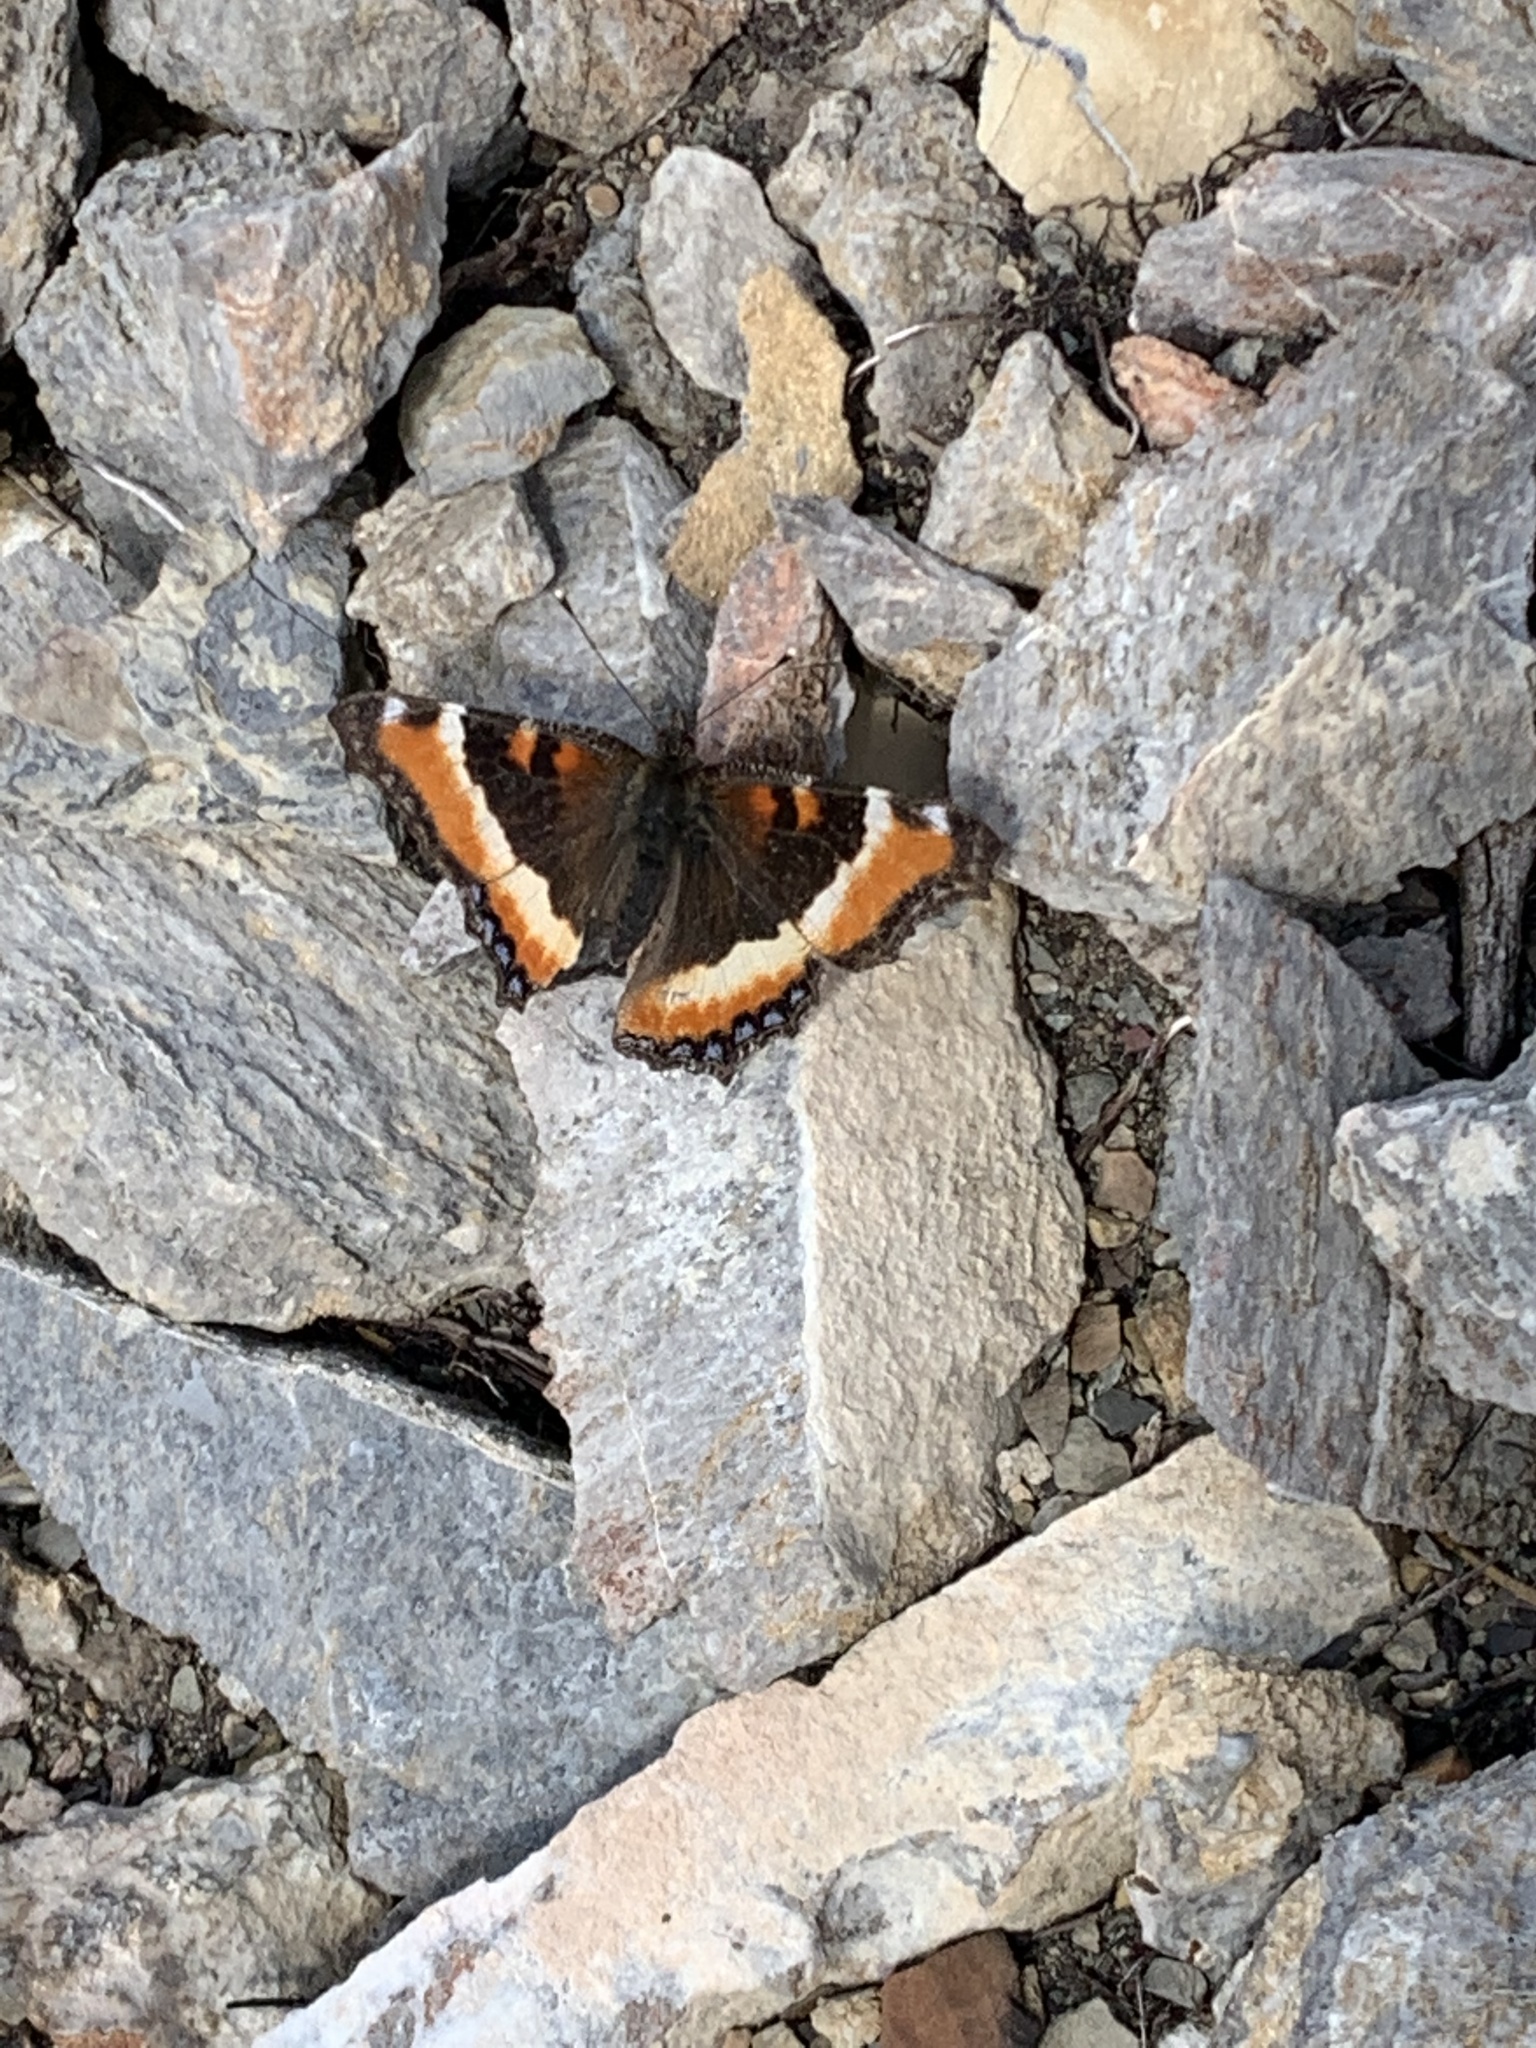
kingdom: Animalia
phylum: Arthropoda
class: Insecta
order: Lepidoptera
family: Nymphalidae
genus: Aglais
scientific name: Aglais milberti
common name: Milbert's tortoiseshell
